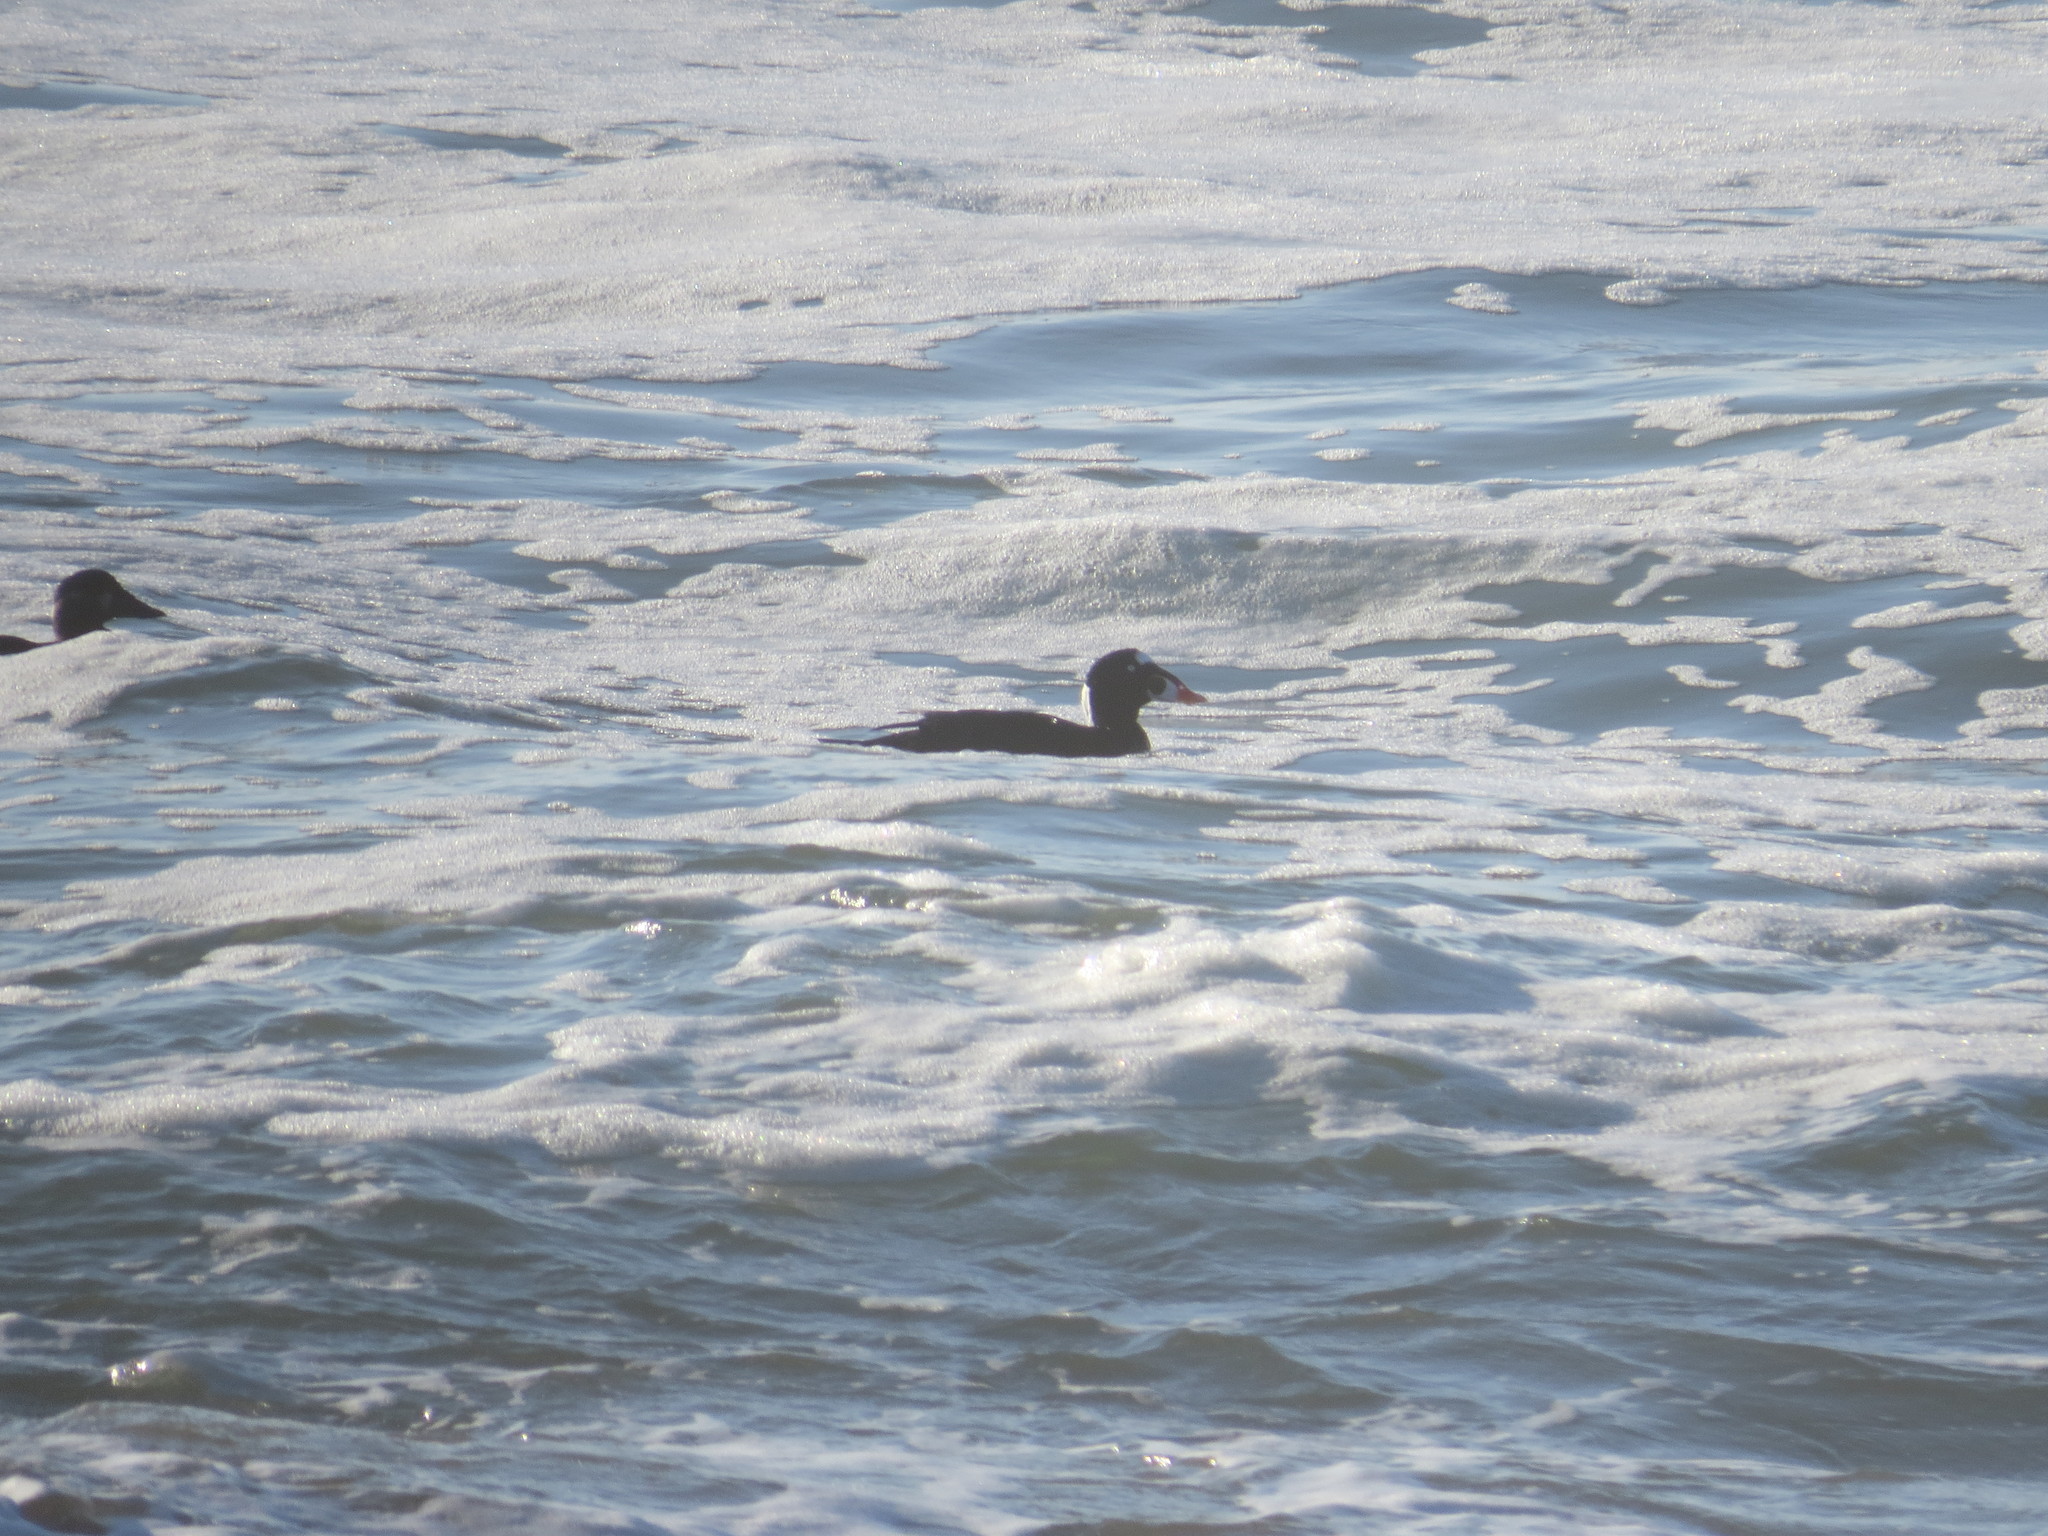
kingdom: Animalia
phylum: Chordata
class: Aves
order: Anseriformes
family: Anatidae
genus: Melanitta
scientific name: Melanitta perspicillata
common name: Surf scoter
